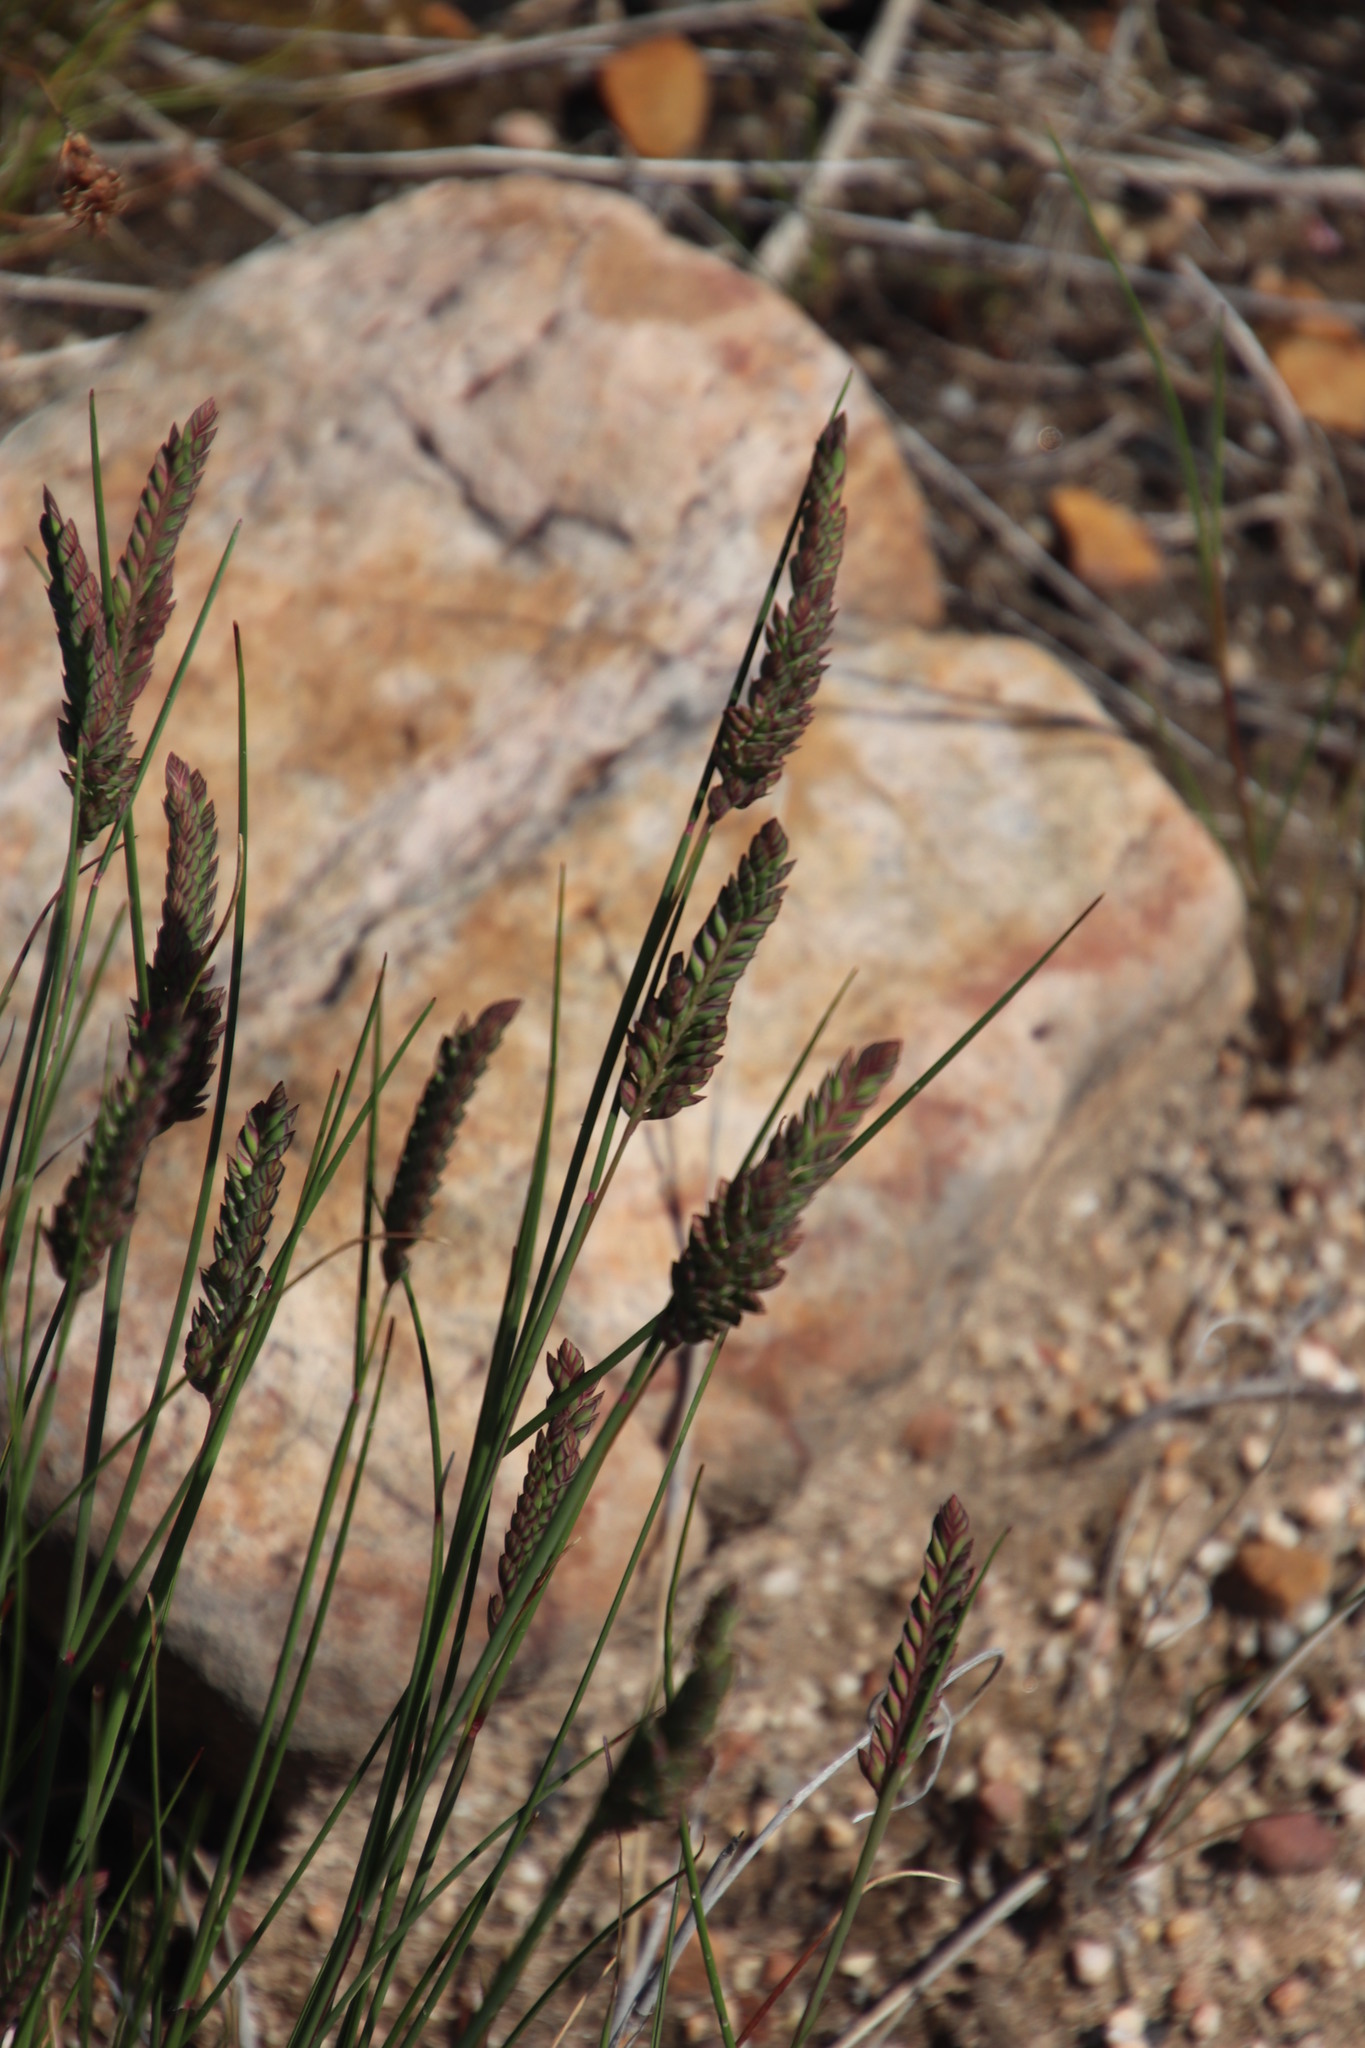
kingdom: Plantae
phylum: Tracheophyta
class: Liliopsida
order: Poales
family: Poaceae
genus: Tribolium
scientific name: Tribolium uniolae
